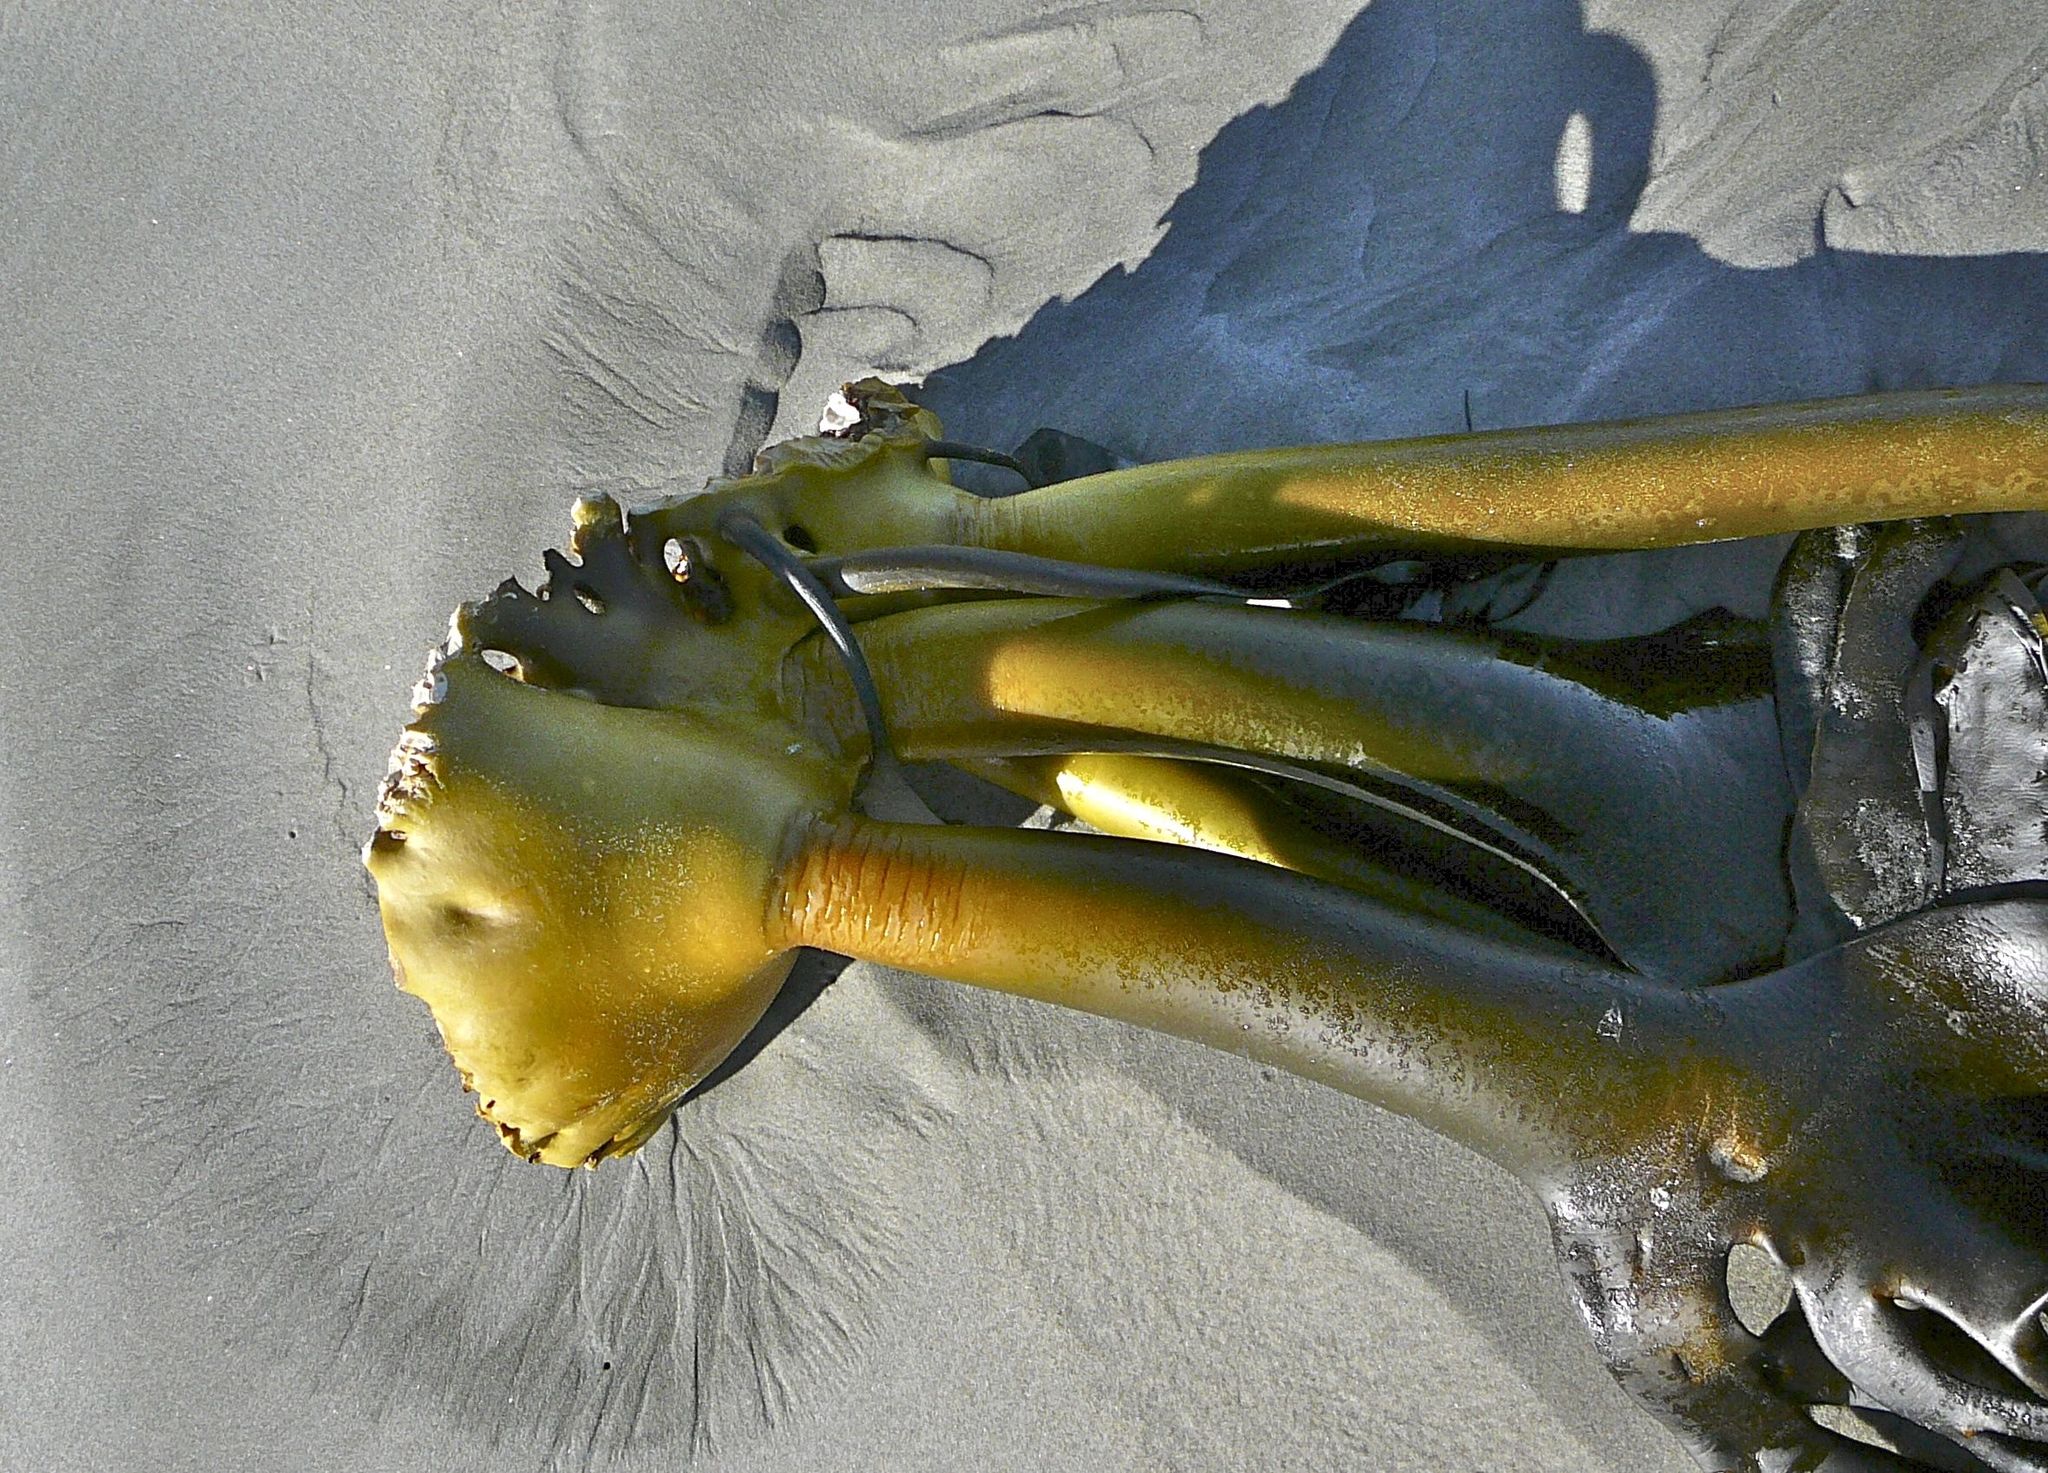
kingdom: Chromista
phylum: Ochrophyta
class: Phaeophyceae
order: Fucales
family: Durvillaeaceae
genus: Durvillaea
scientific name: Durvillaea antarctica
